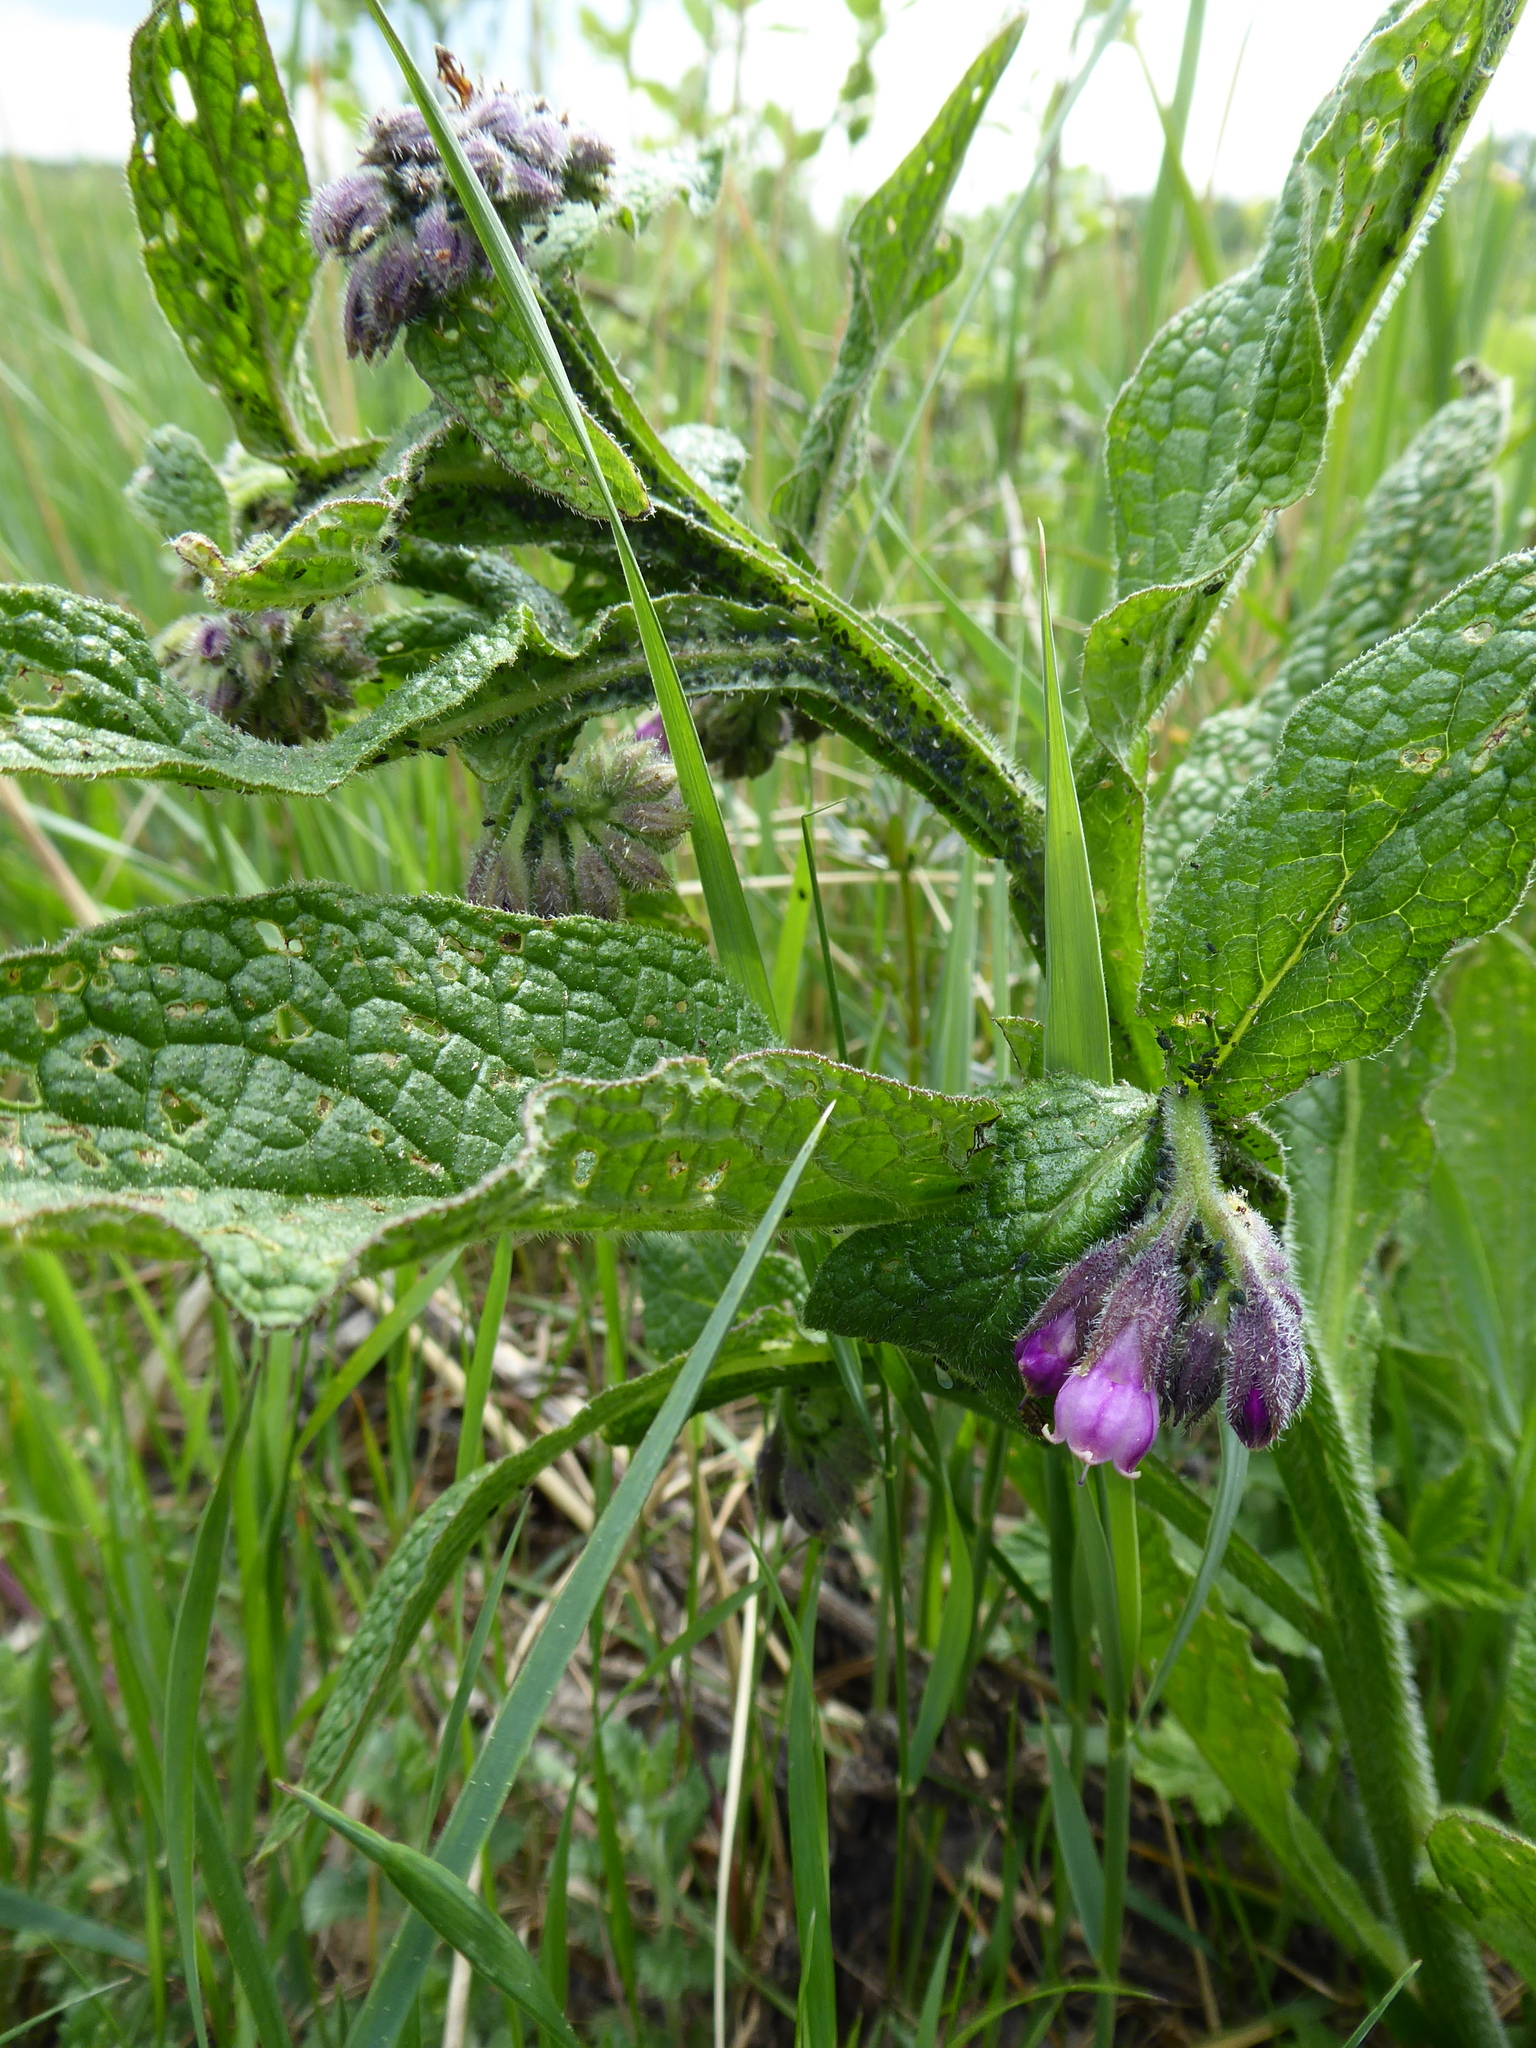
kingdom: Plantae
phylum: Tracheophyta
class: Magnoliopsida
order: Boraginales
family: Boraginaceae
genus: Symphytum
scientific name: Symphytum officinale
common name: Common comfrey
